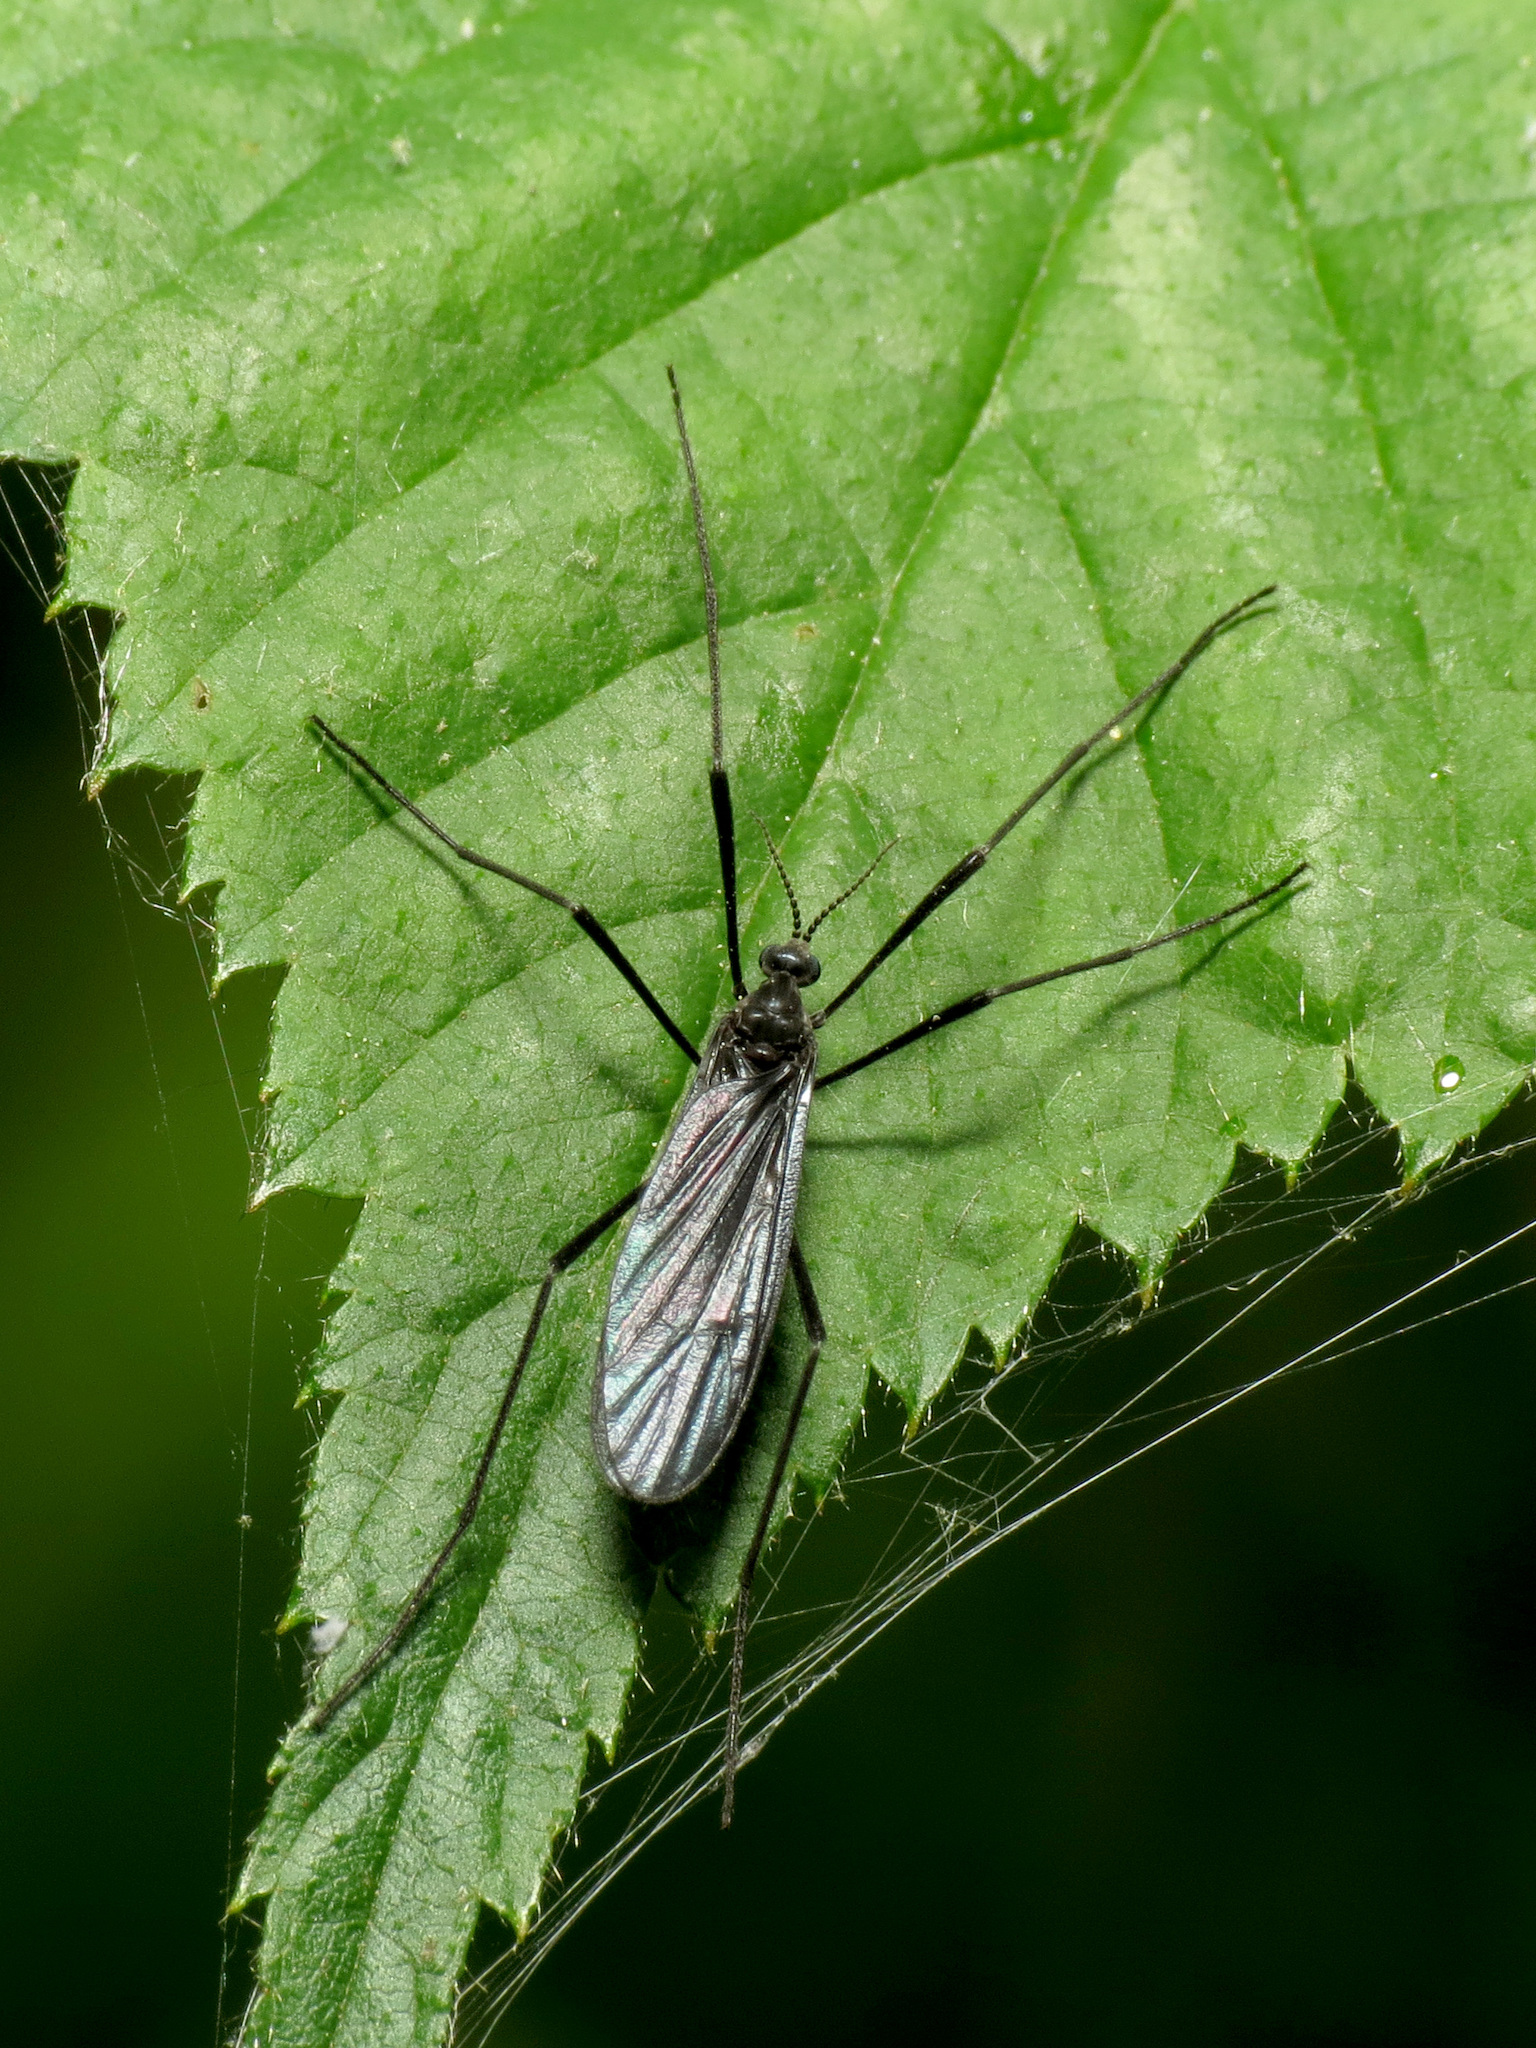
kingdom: Animalia
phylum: Arthropoda
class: Insecta
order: Diptera
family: Limoniidae
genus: Eugnophomyia
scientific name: Eugnophomyia luctuosa
